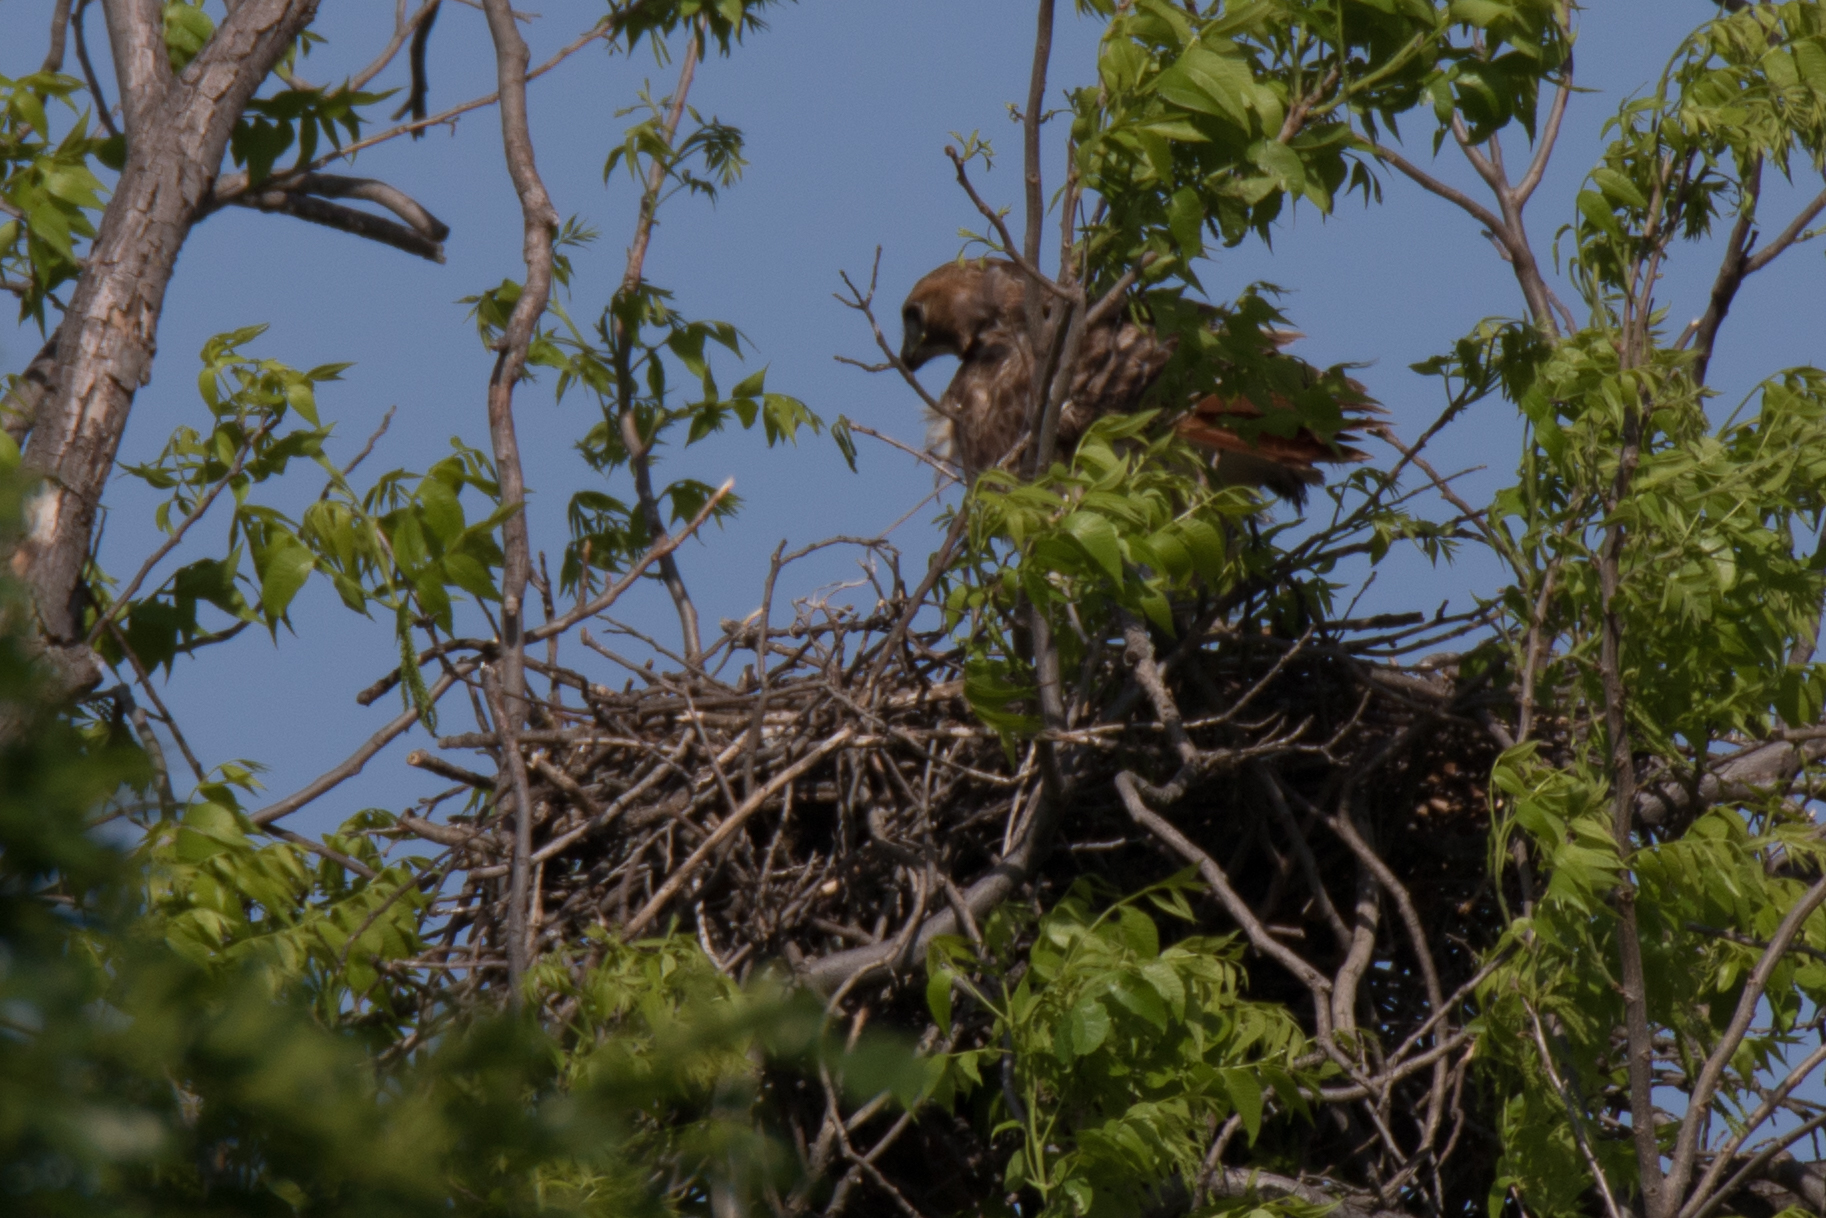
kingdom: Animalia
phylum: Chordata
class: Aves
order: Accipitriformes
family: Accipitridae
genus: Buteo
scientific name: Buteo jamaicensis
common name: Red-tailed hawk
